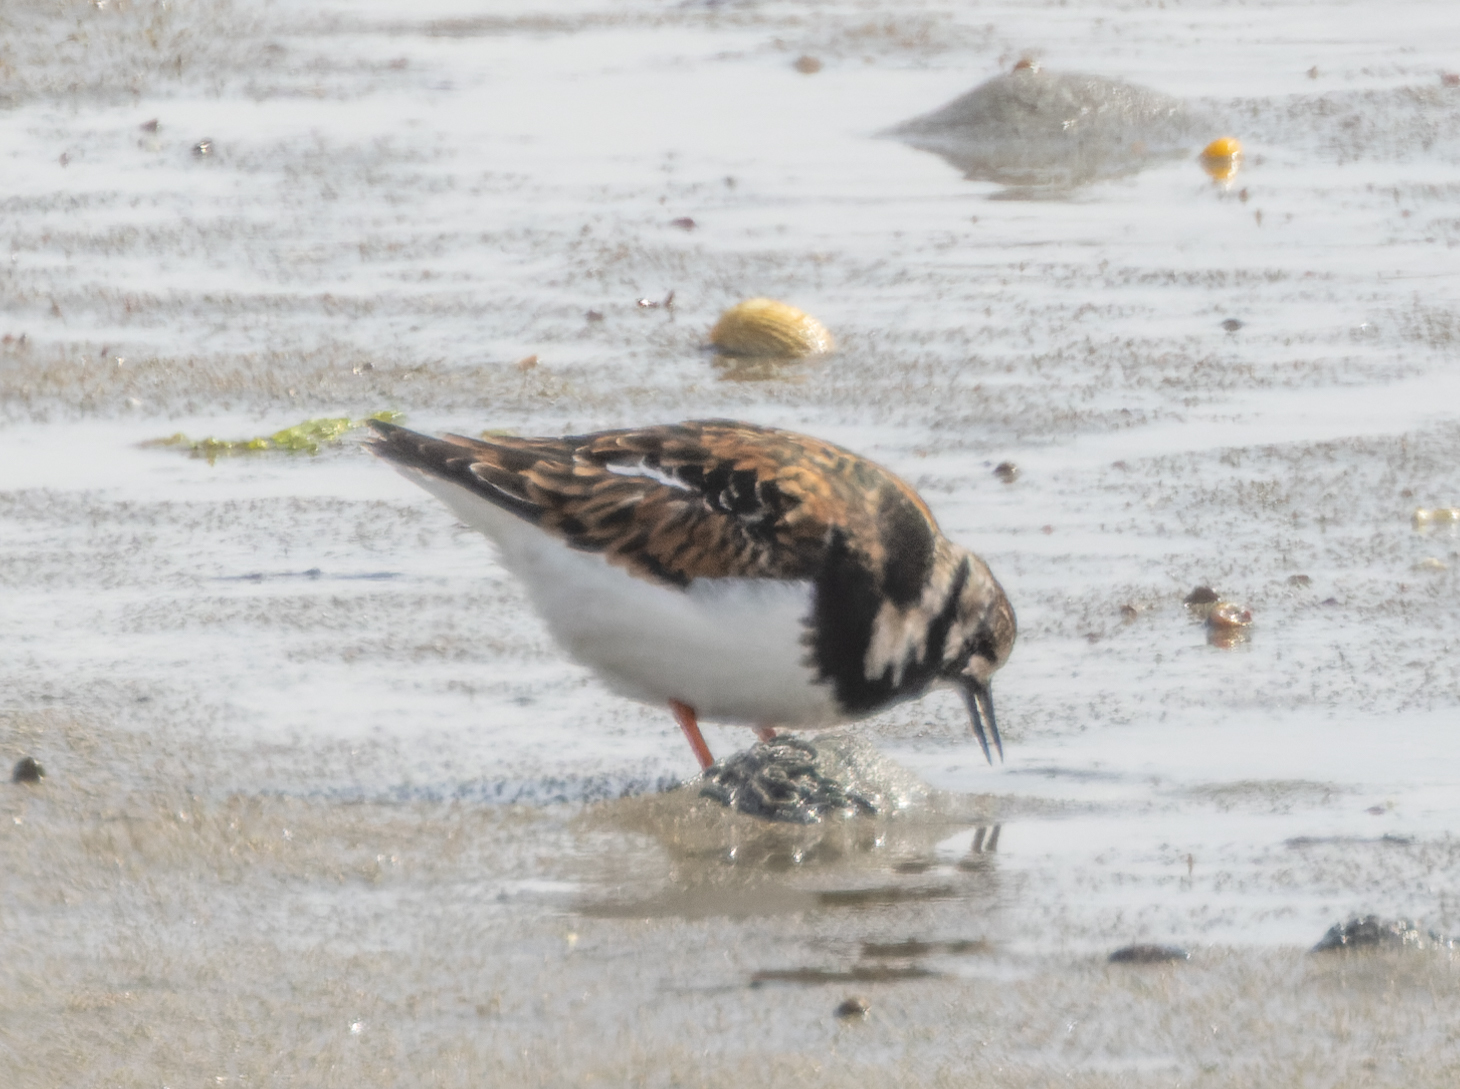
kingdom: Animalia
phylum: Chordata
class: Aves
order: Charadriiformes
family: Scolopacidae
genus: Arenaria
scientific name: Arenaria interpres
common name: Ruddy turnstone
